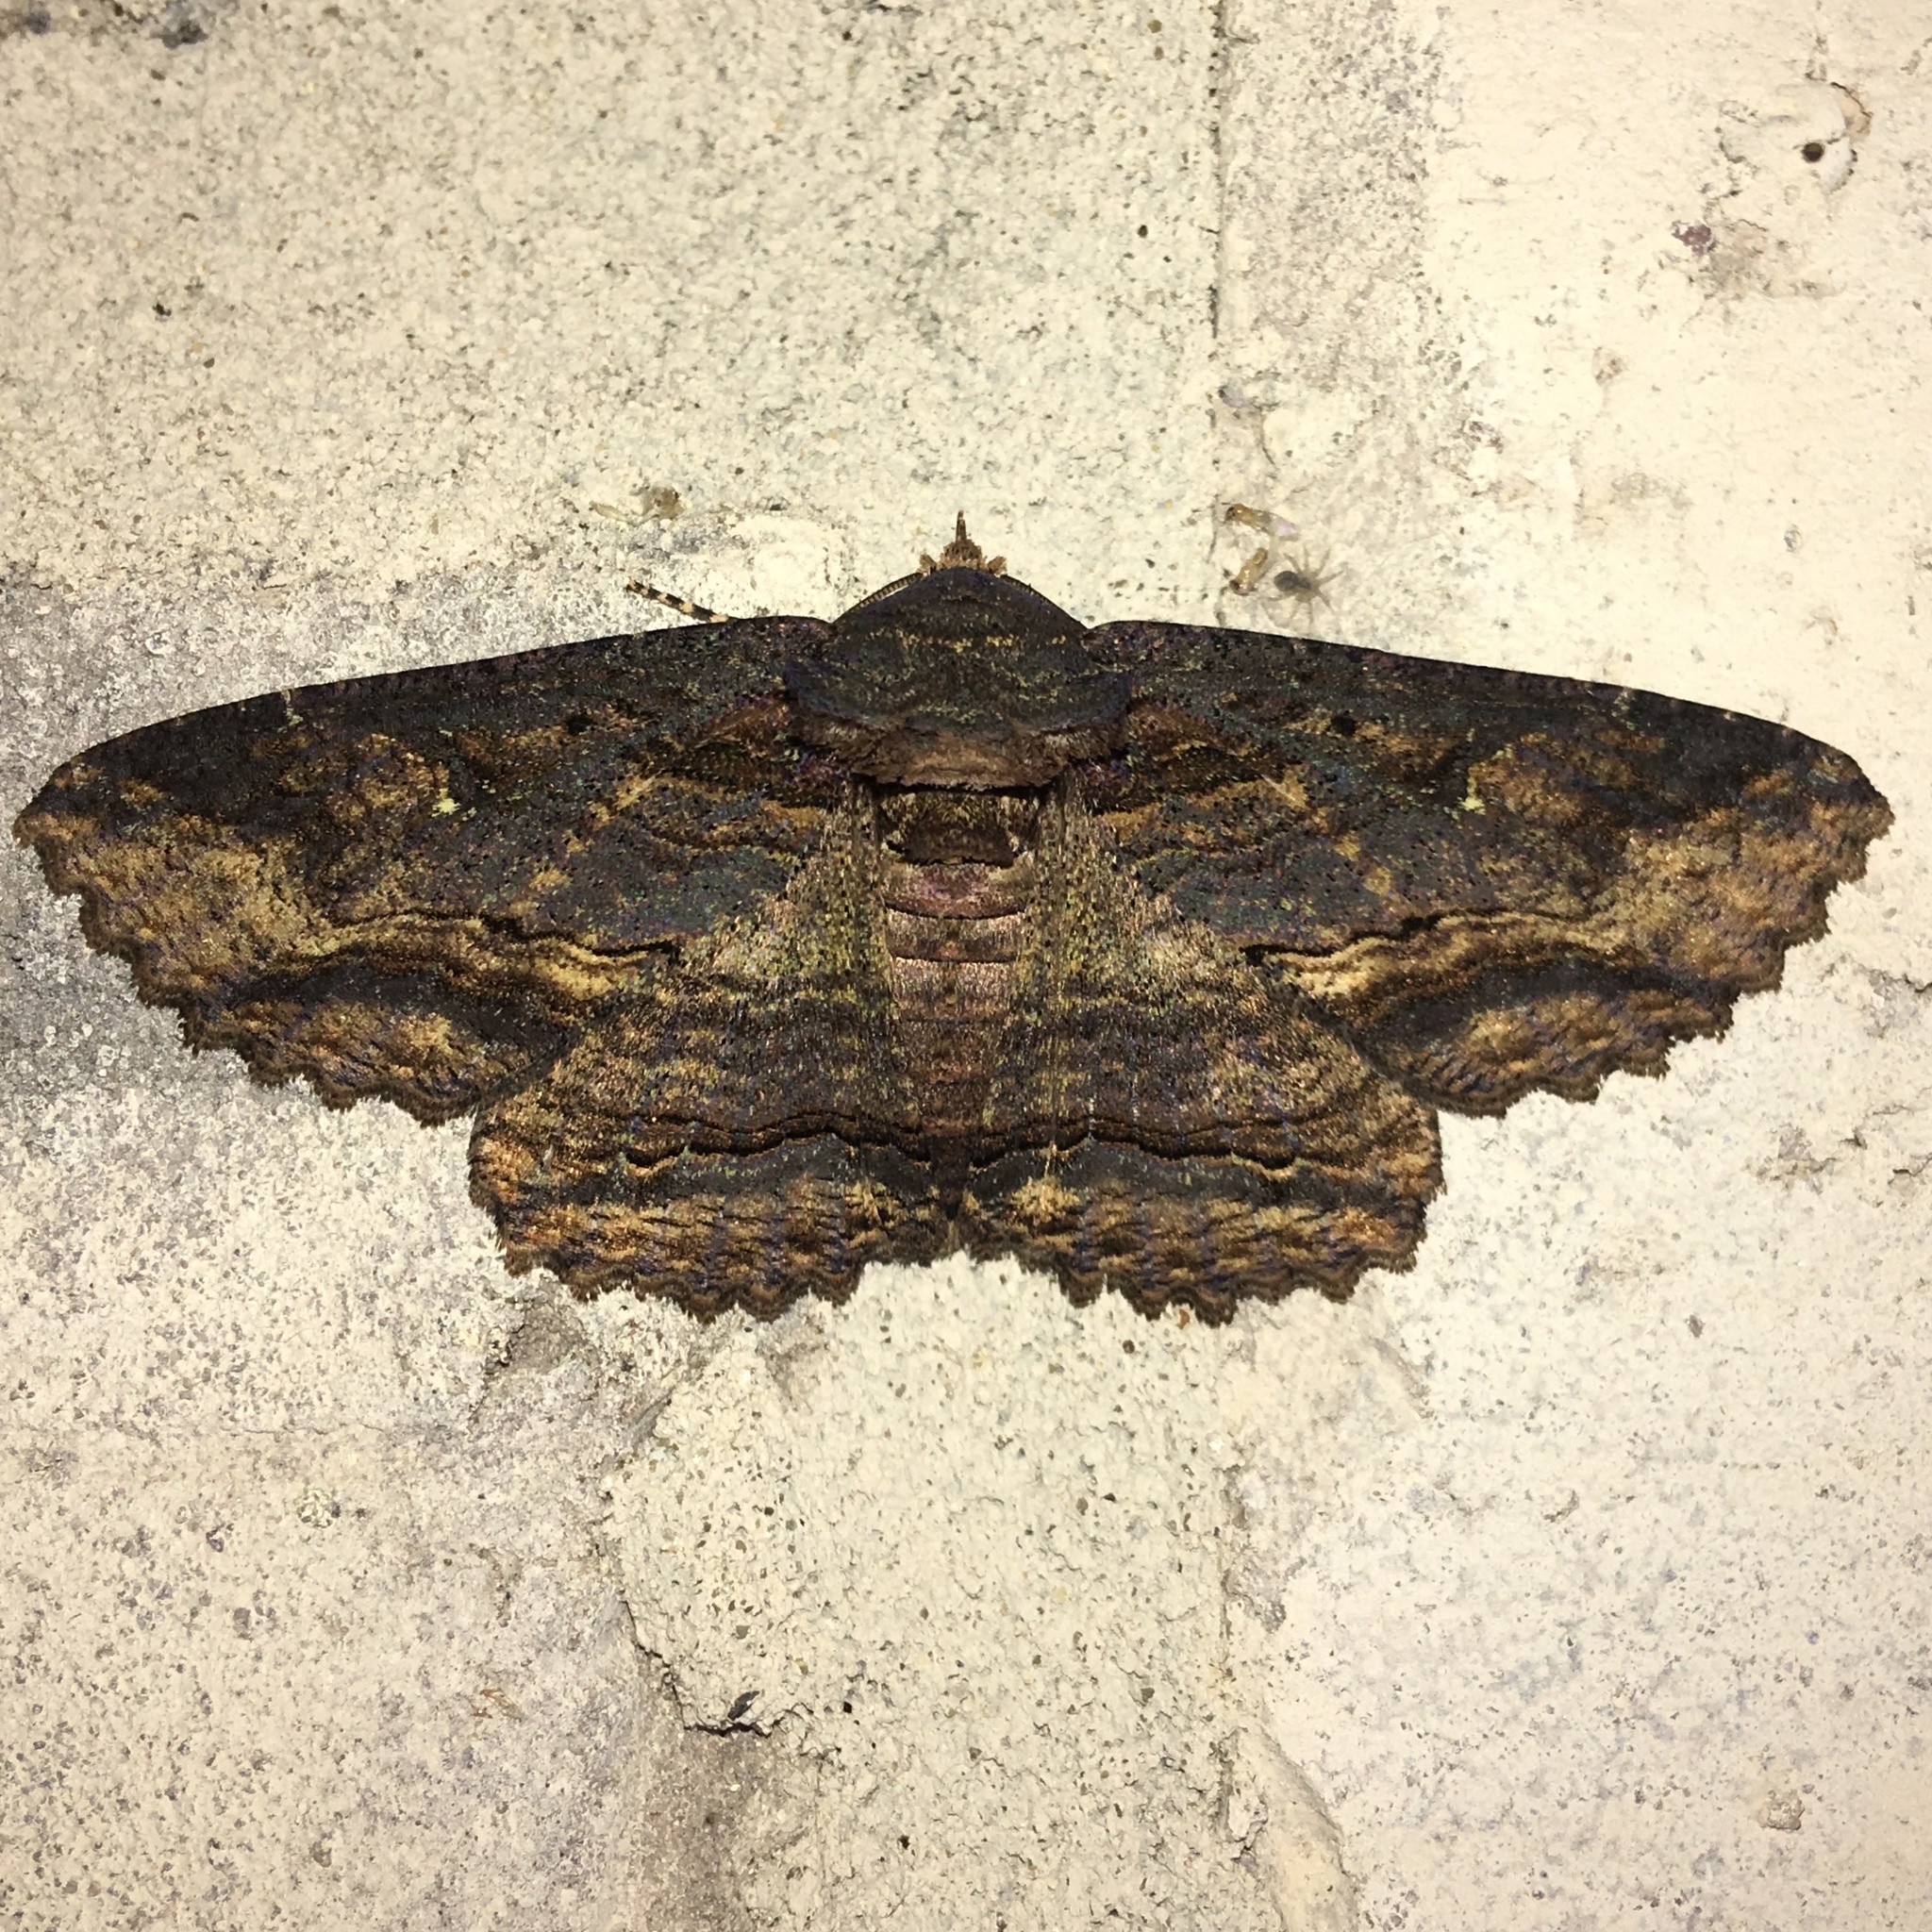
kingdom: Animalia
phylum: Arthropoda
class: Insecta
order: Lepidoptera
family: Erebidae
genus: Zale
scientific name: Zale lunata
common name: Lunate zale moth
